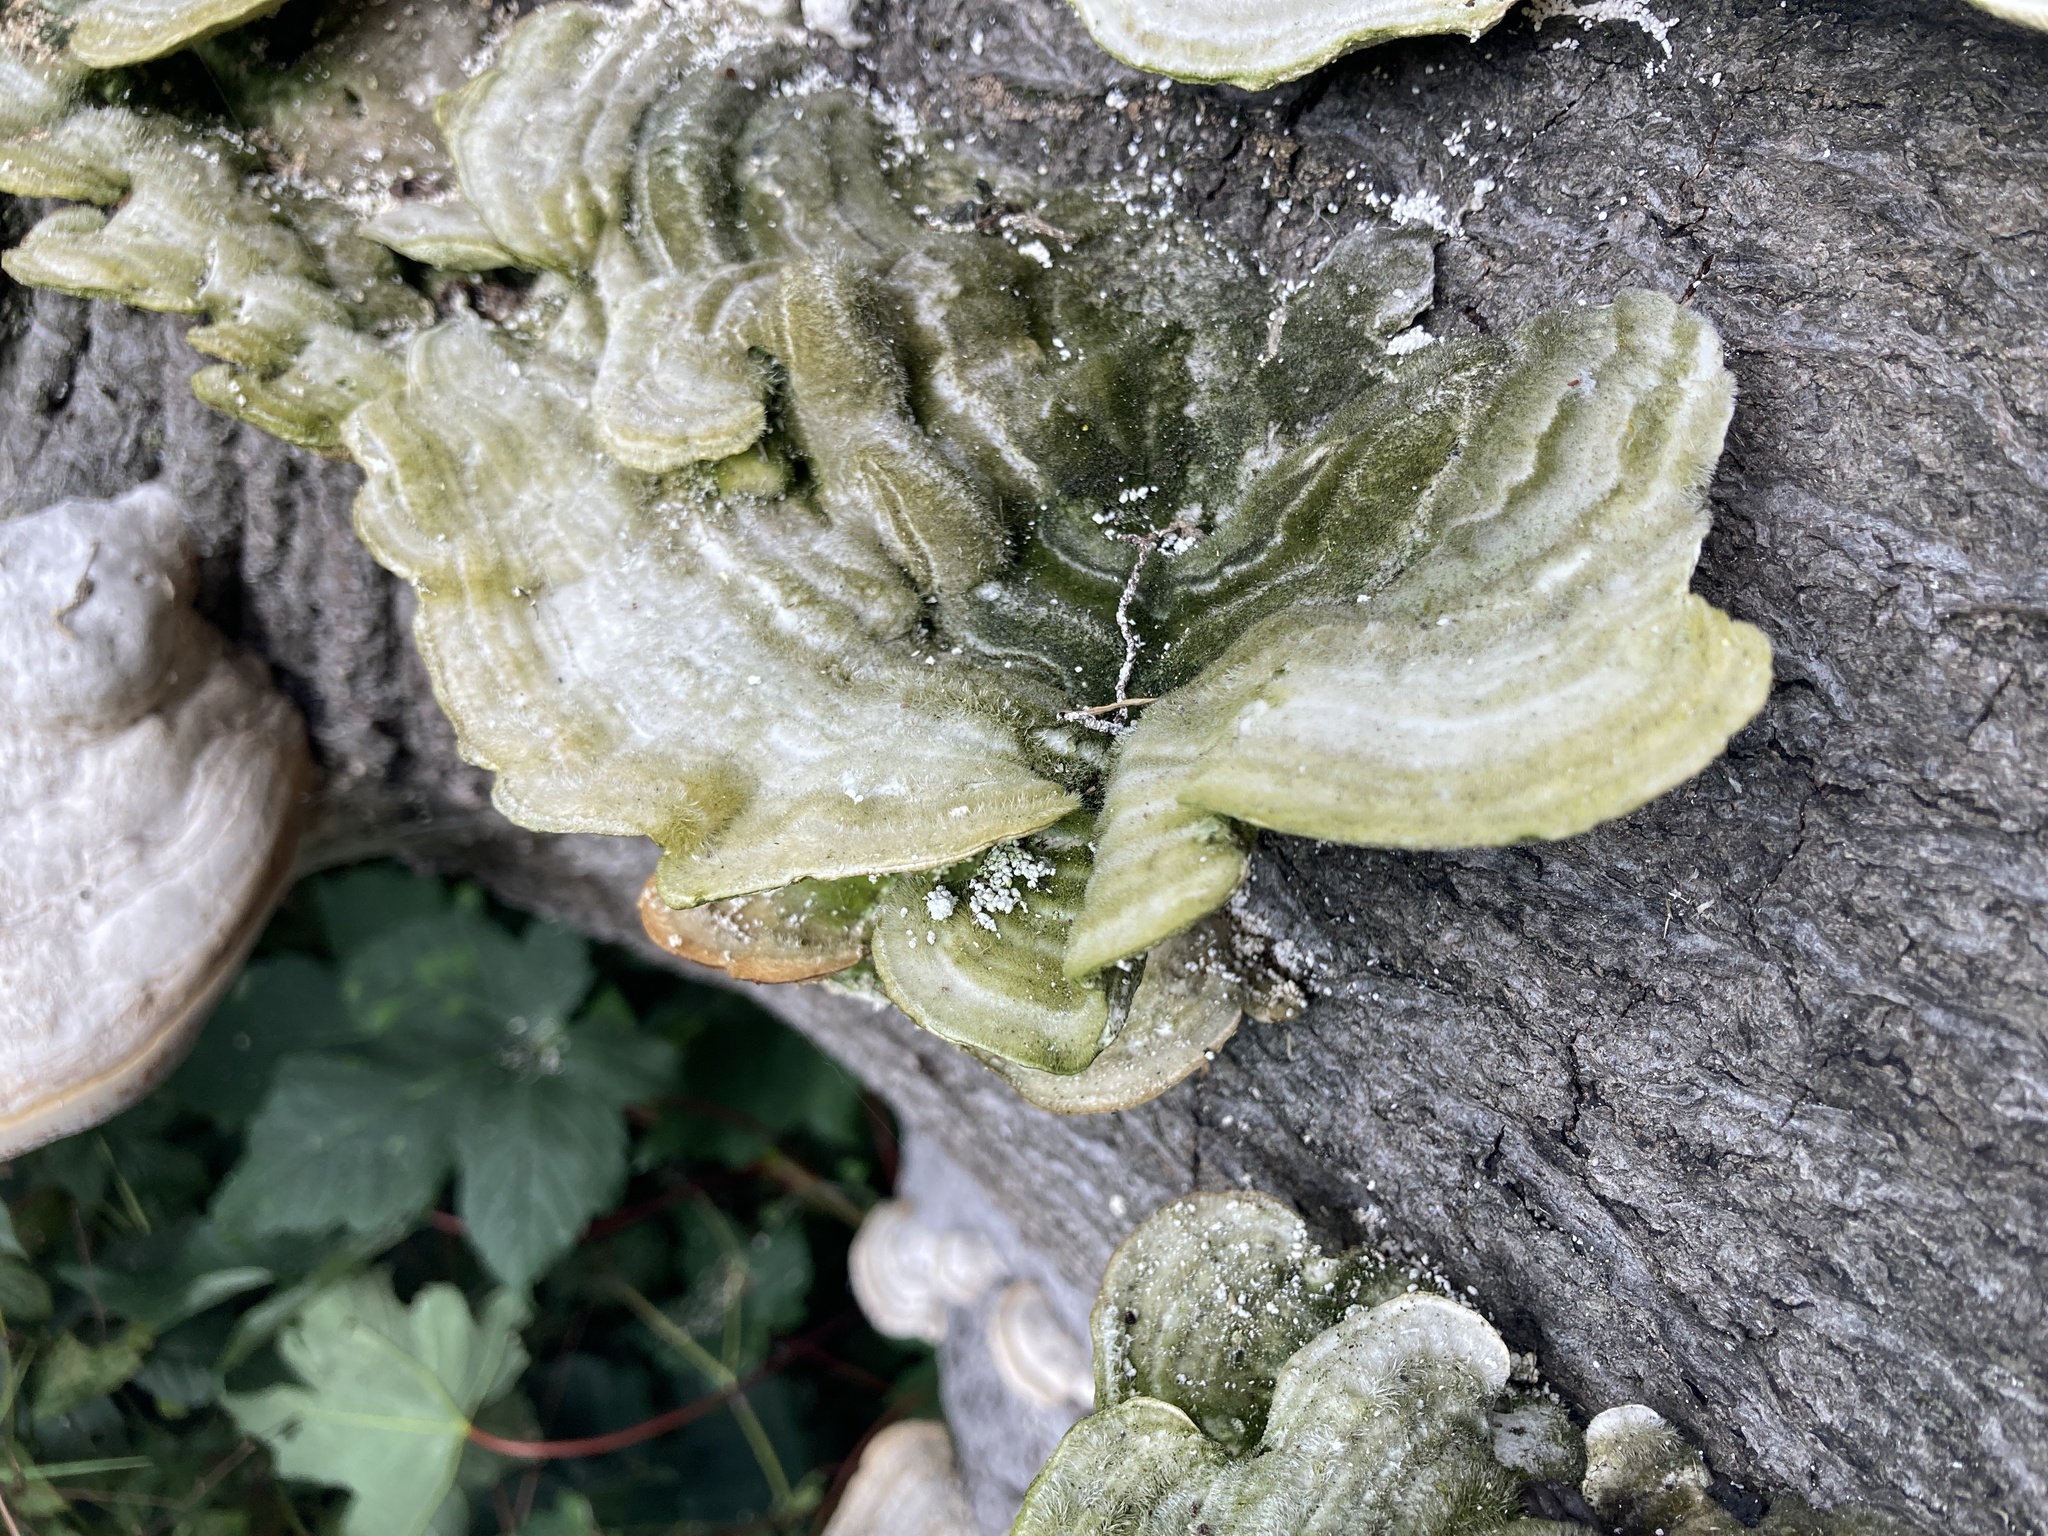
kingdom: Fungi
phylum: Basidiomycota
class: Agaricomycetes
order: Polyporales
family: Polyporaceae
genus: Trametes
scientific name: Trametes hirsuta
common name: Hairy bracket
